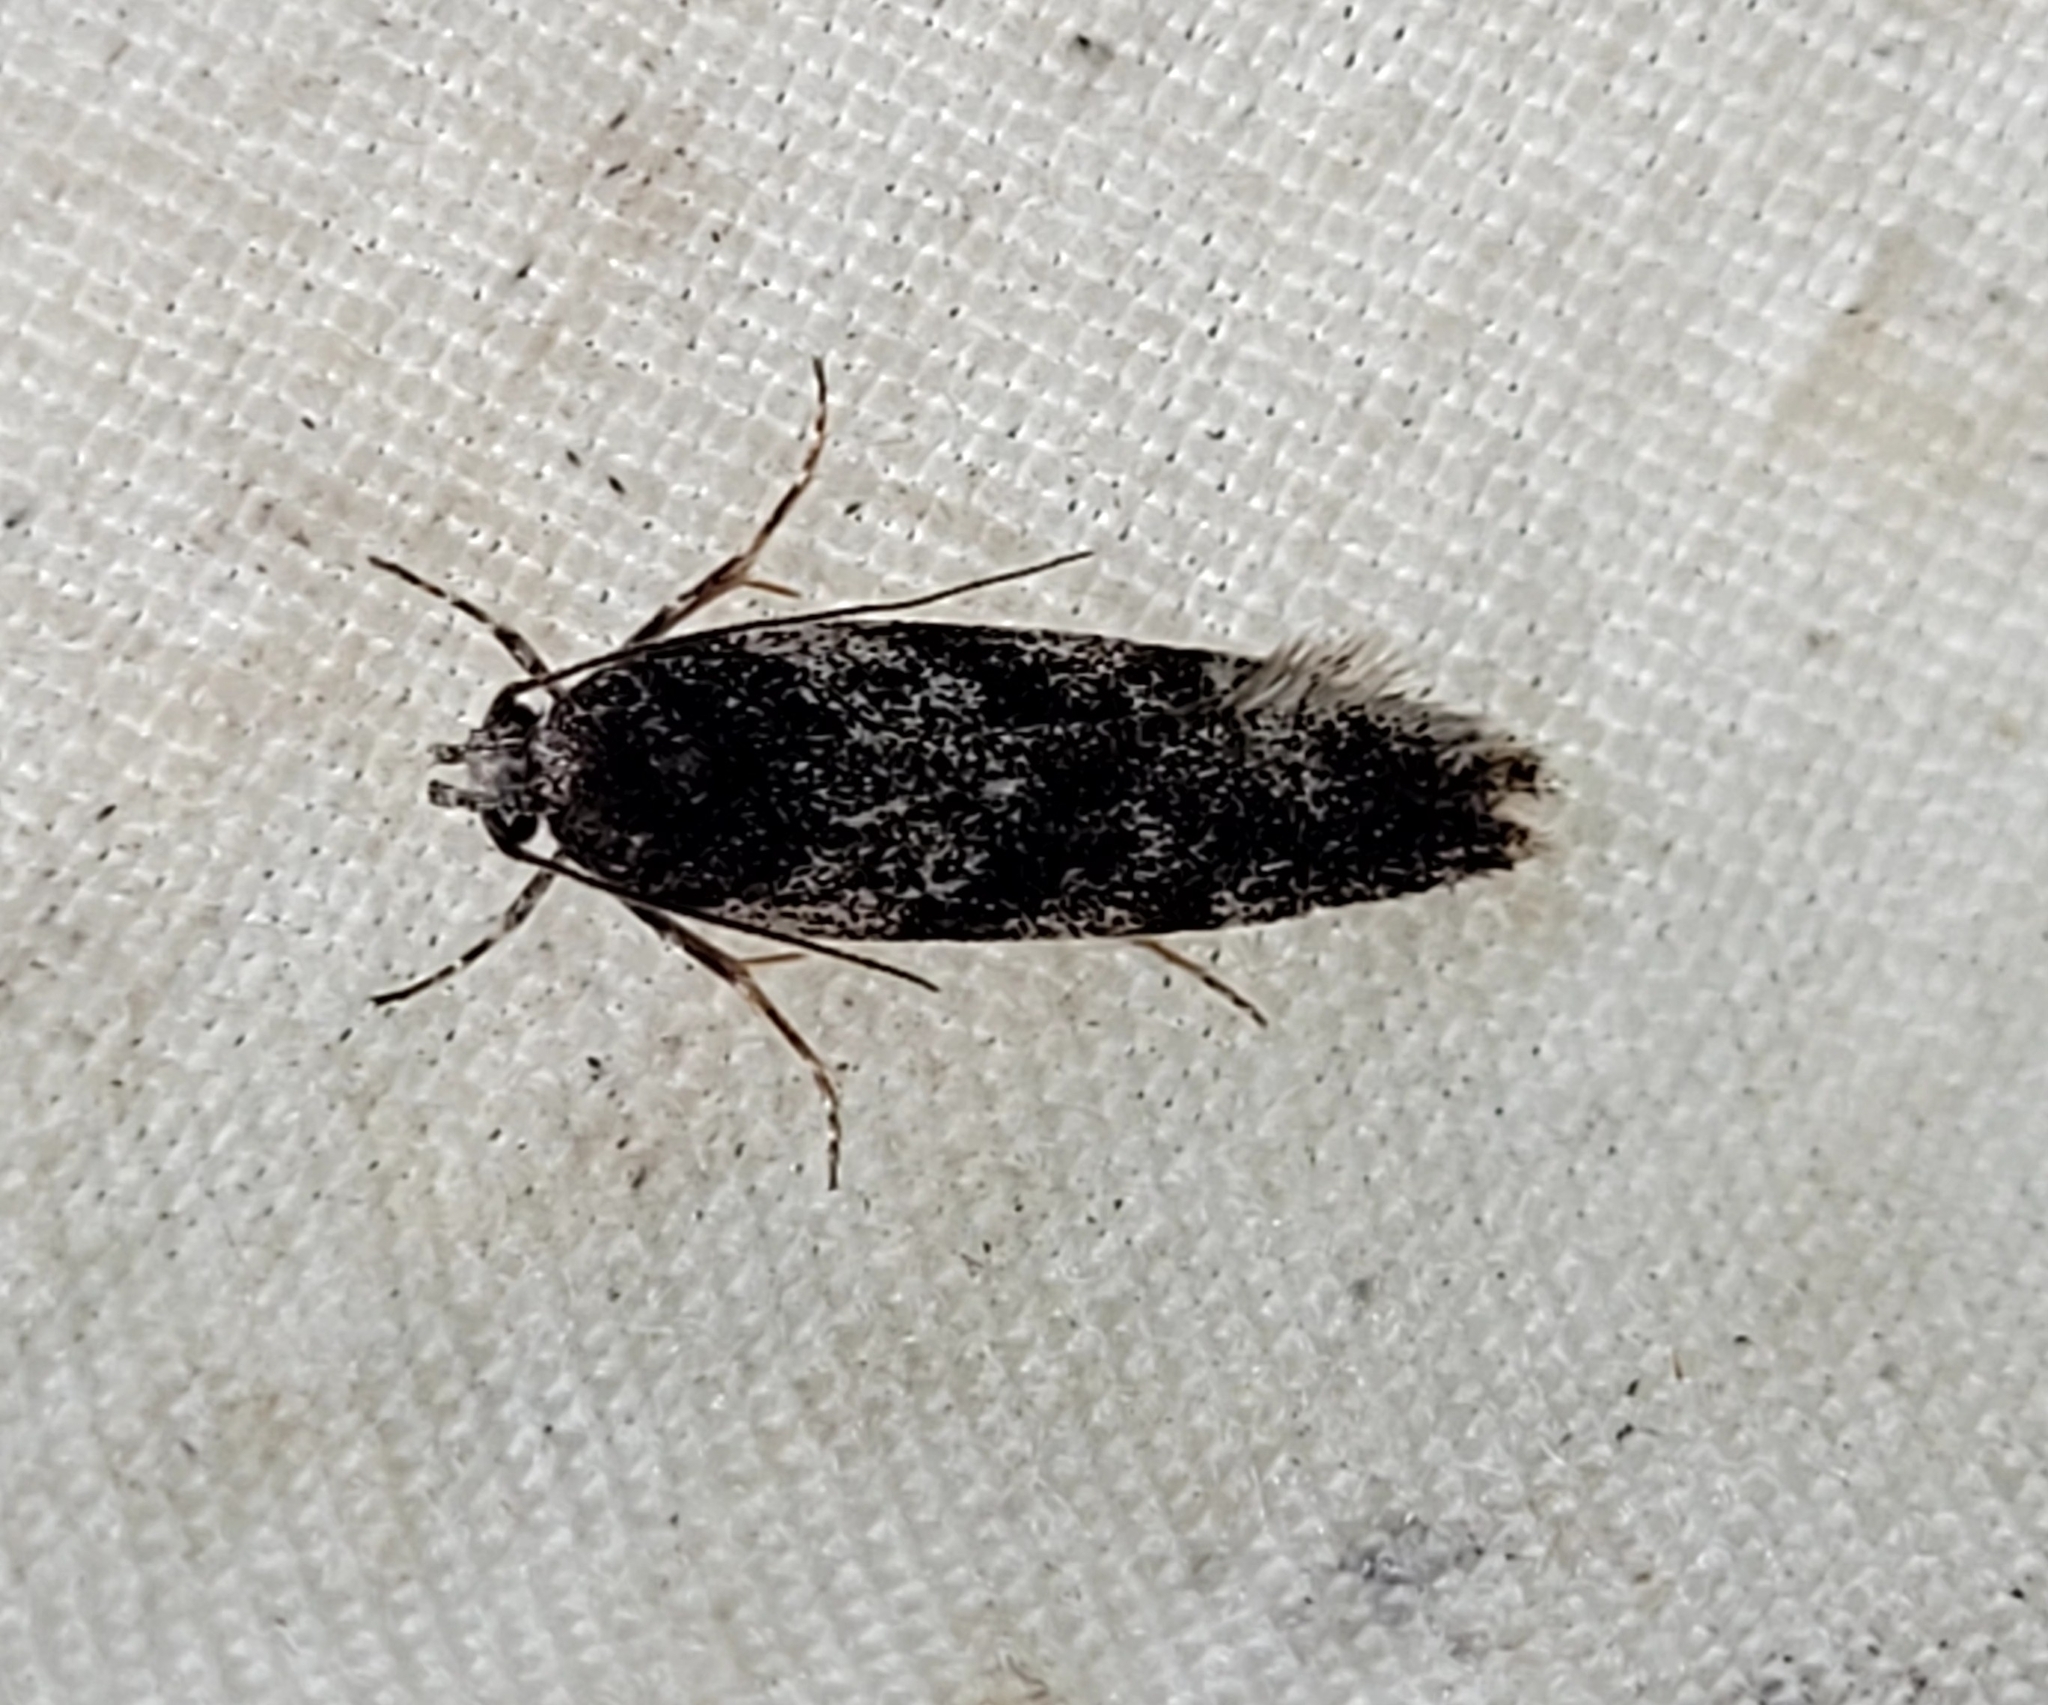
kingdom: Animalia
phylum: Arthropoda
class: Insecta
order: Lepidoptera
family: Gelechiidae
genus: Gelechia
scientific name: Gelechia lynceella
